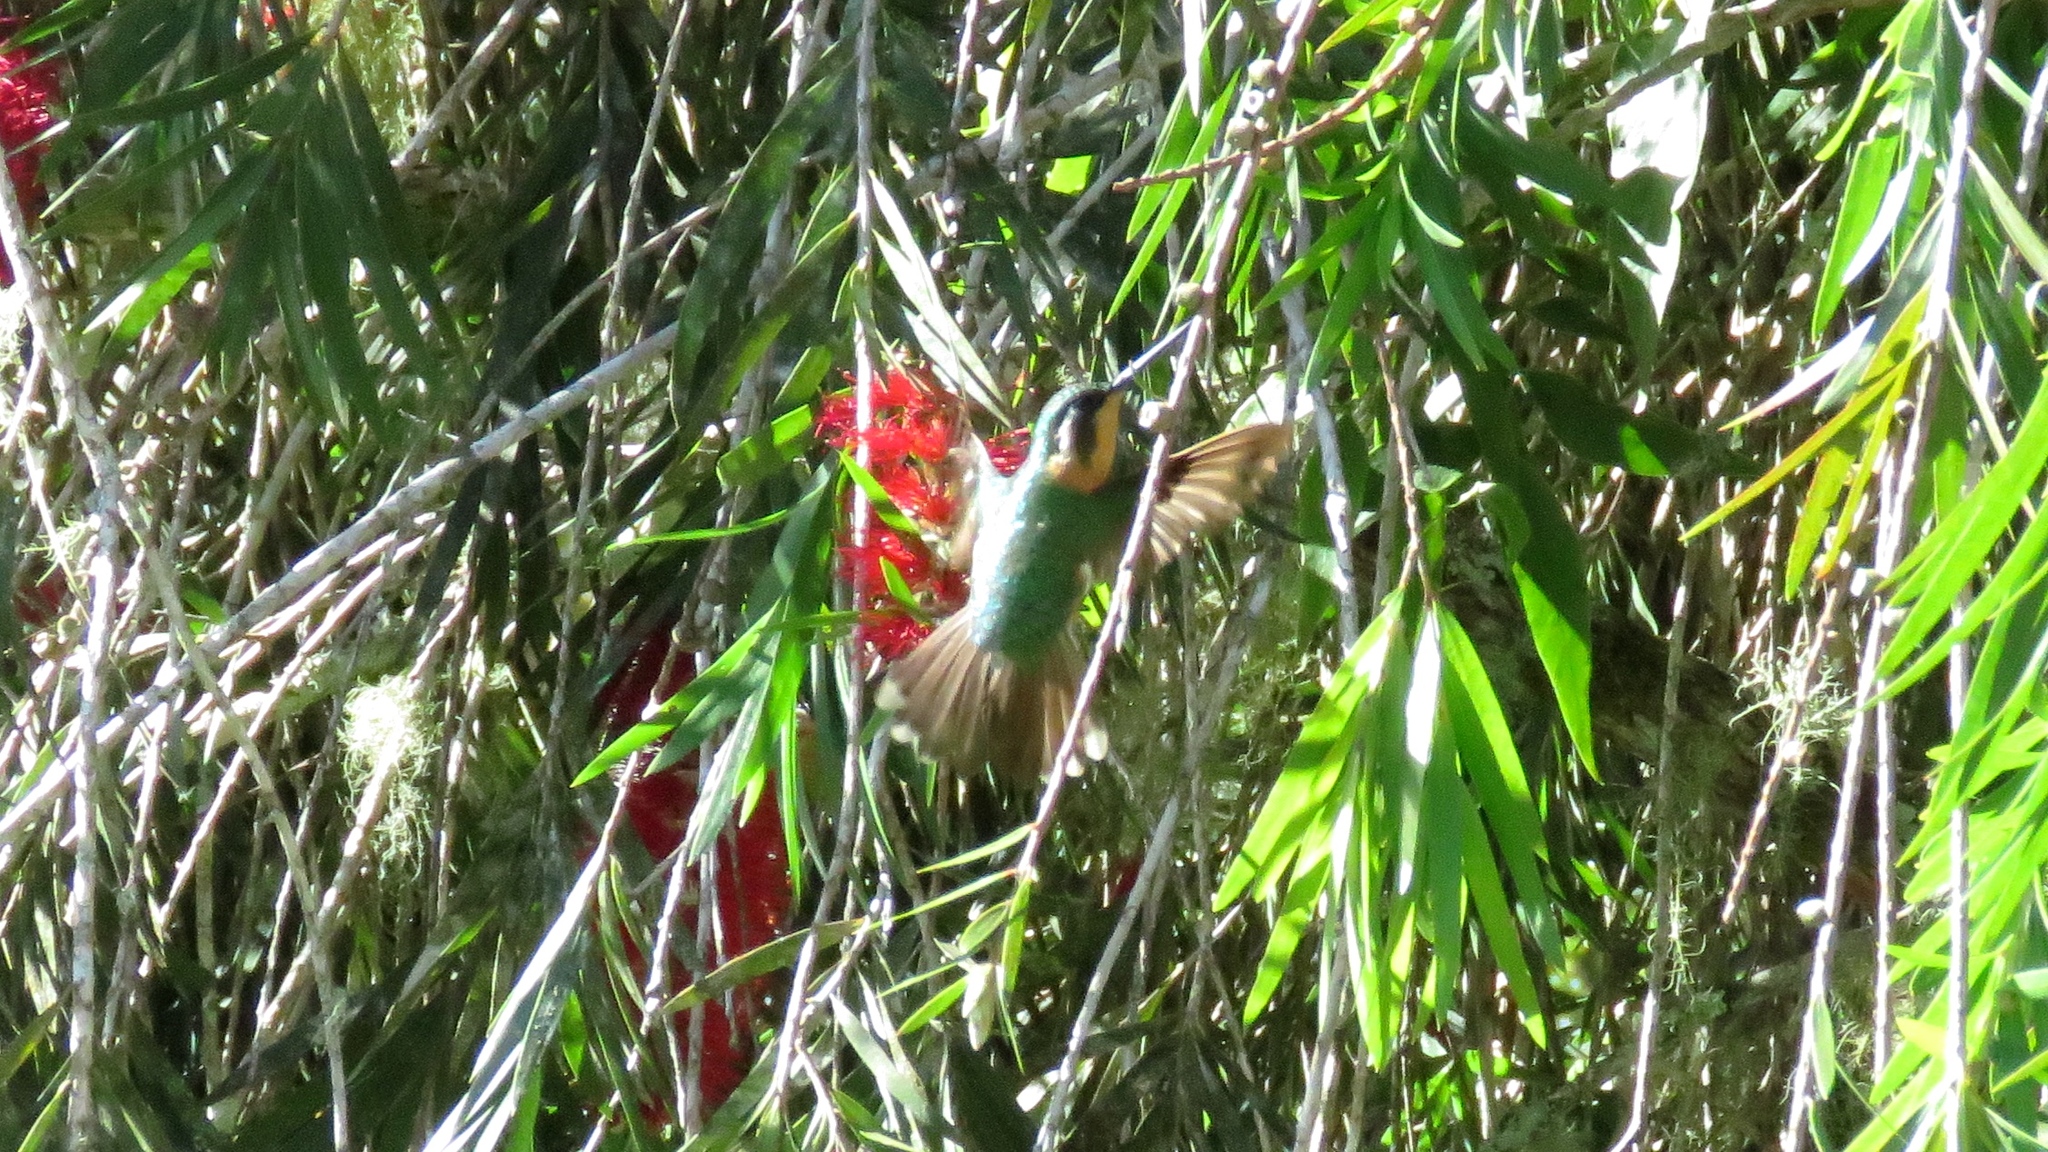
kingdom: Animalia
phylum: Chordata
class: Aves
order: Apodiformes
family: Trochilidae
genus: Lampornis
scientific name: Lampornis castaneoventris
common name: White-throated mountain-gem
